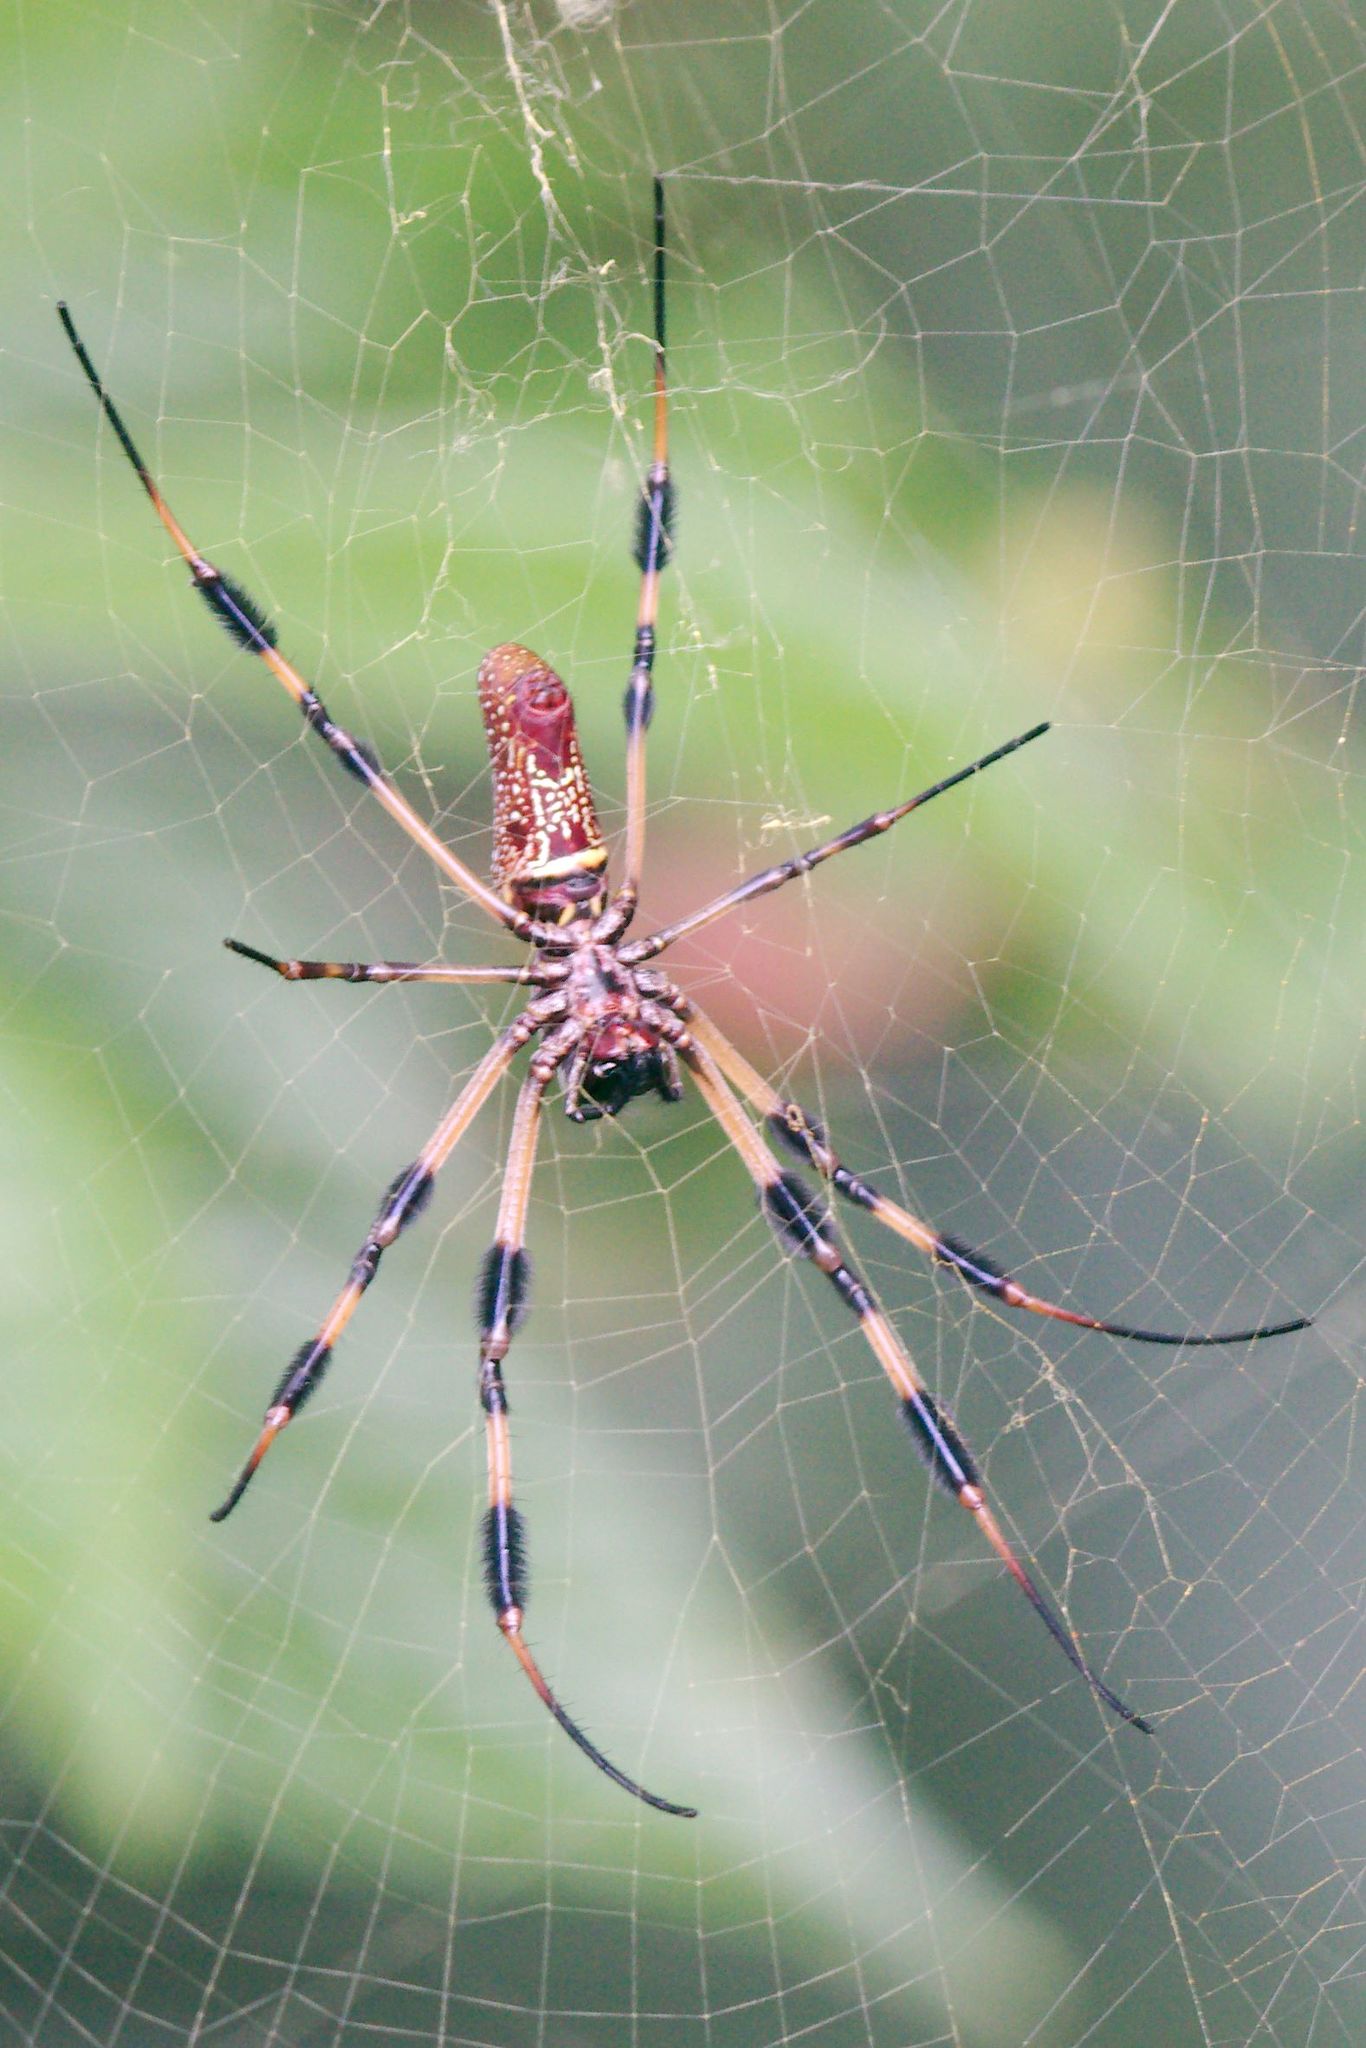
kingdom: Animalia
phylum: Arthropoda
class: Arachnida
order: Araneae
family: Araneidae
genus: Trichonephila
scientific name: Trichonephila clavipes
